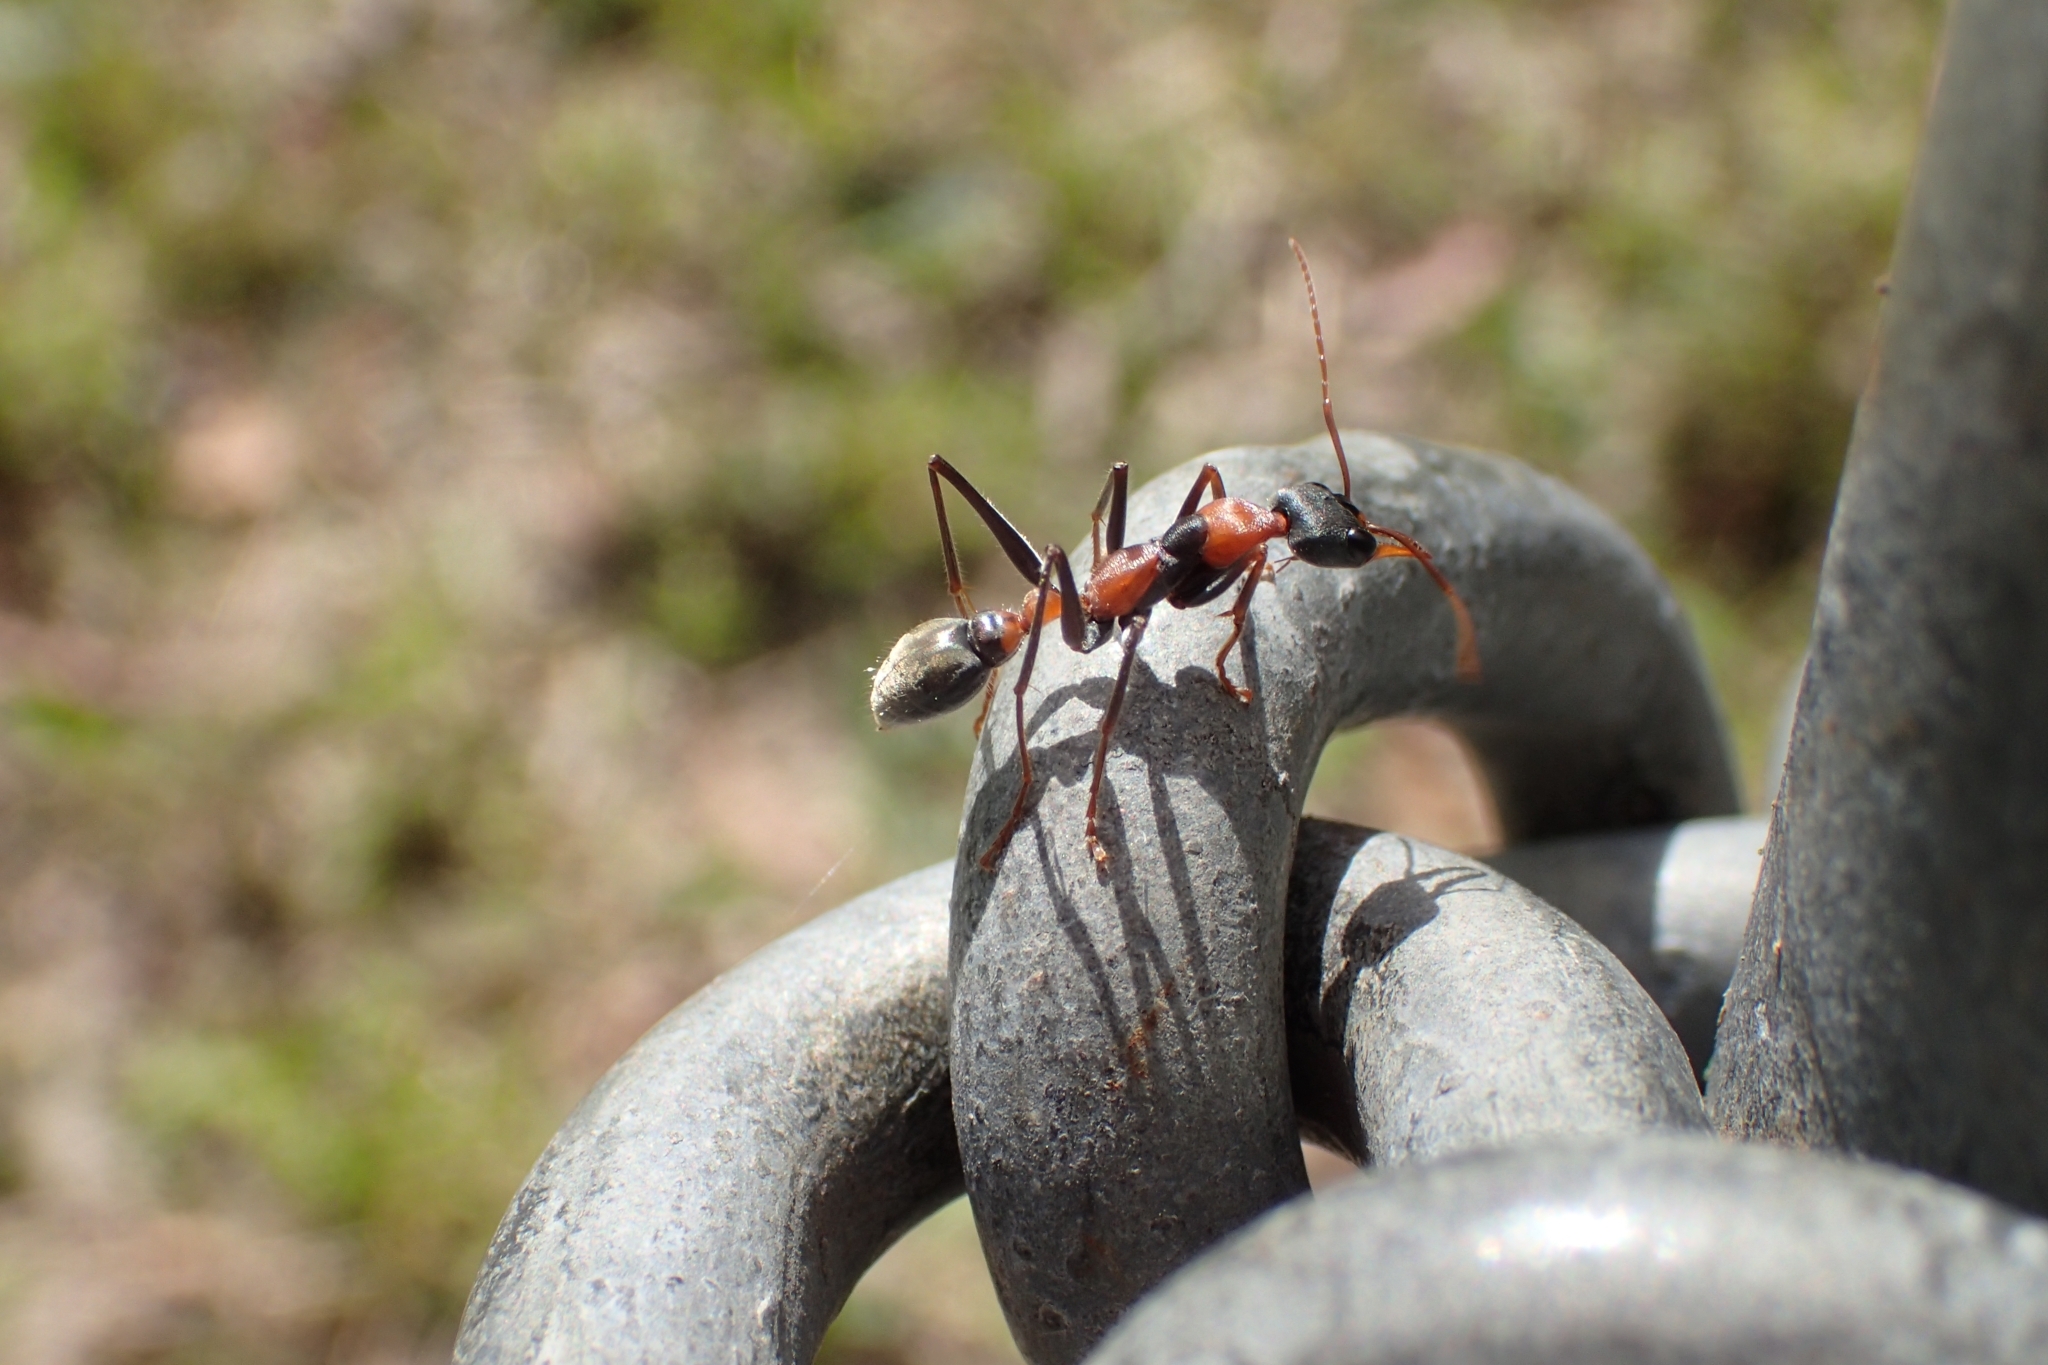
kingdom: Animalia
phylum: Arthropoda
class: Insecta
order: Hymenoptera
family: Formicidae
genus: Myrmecia
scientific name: Myrmecia nigrocincta
